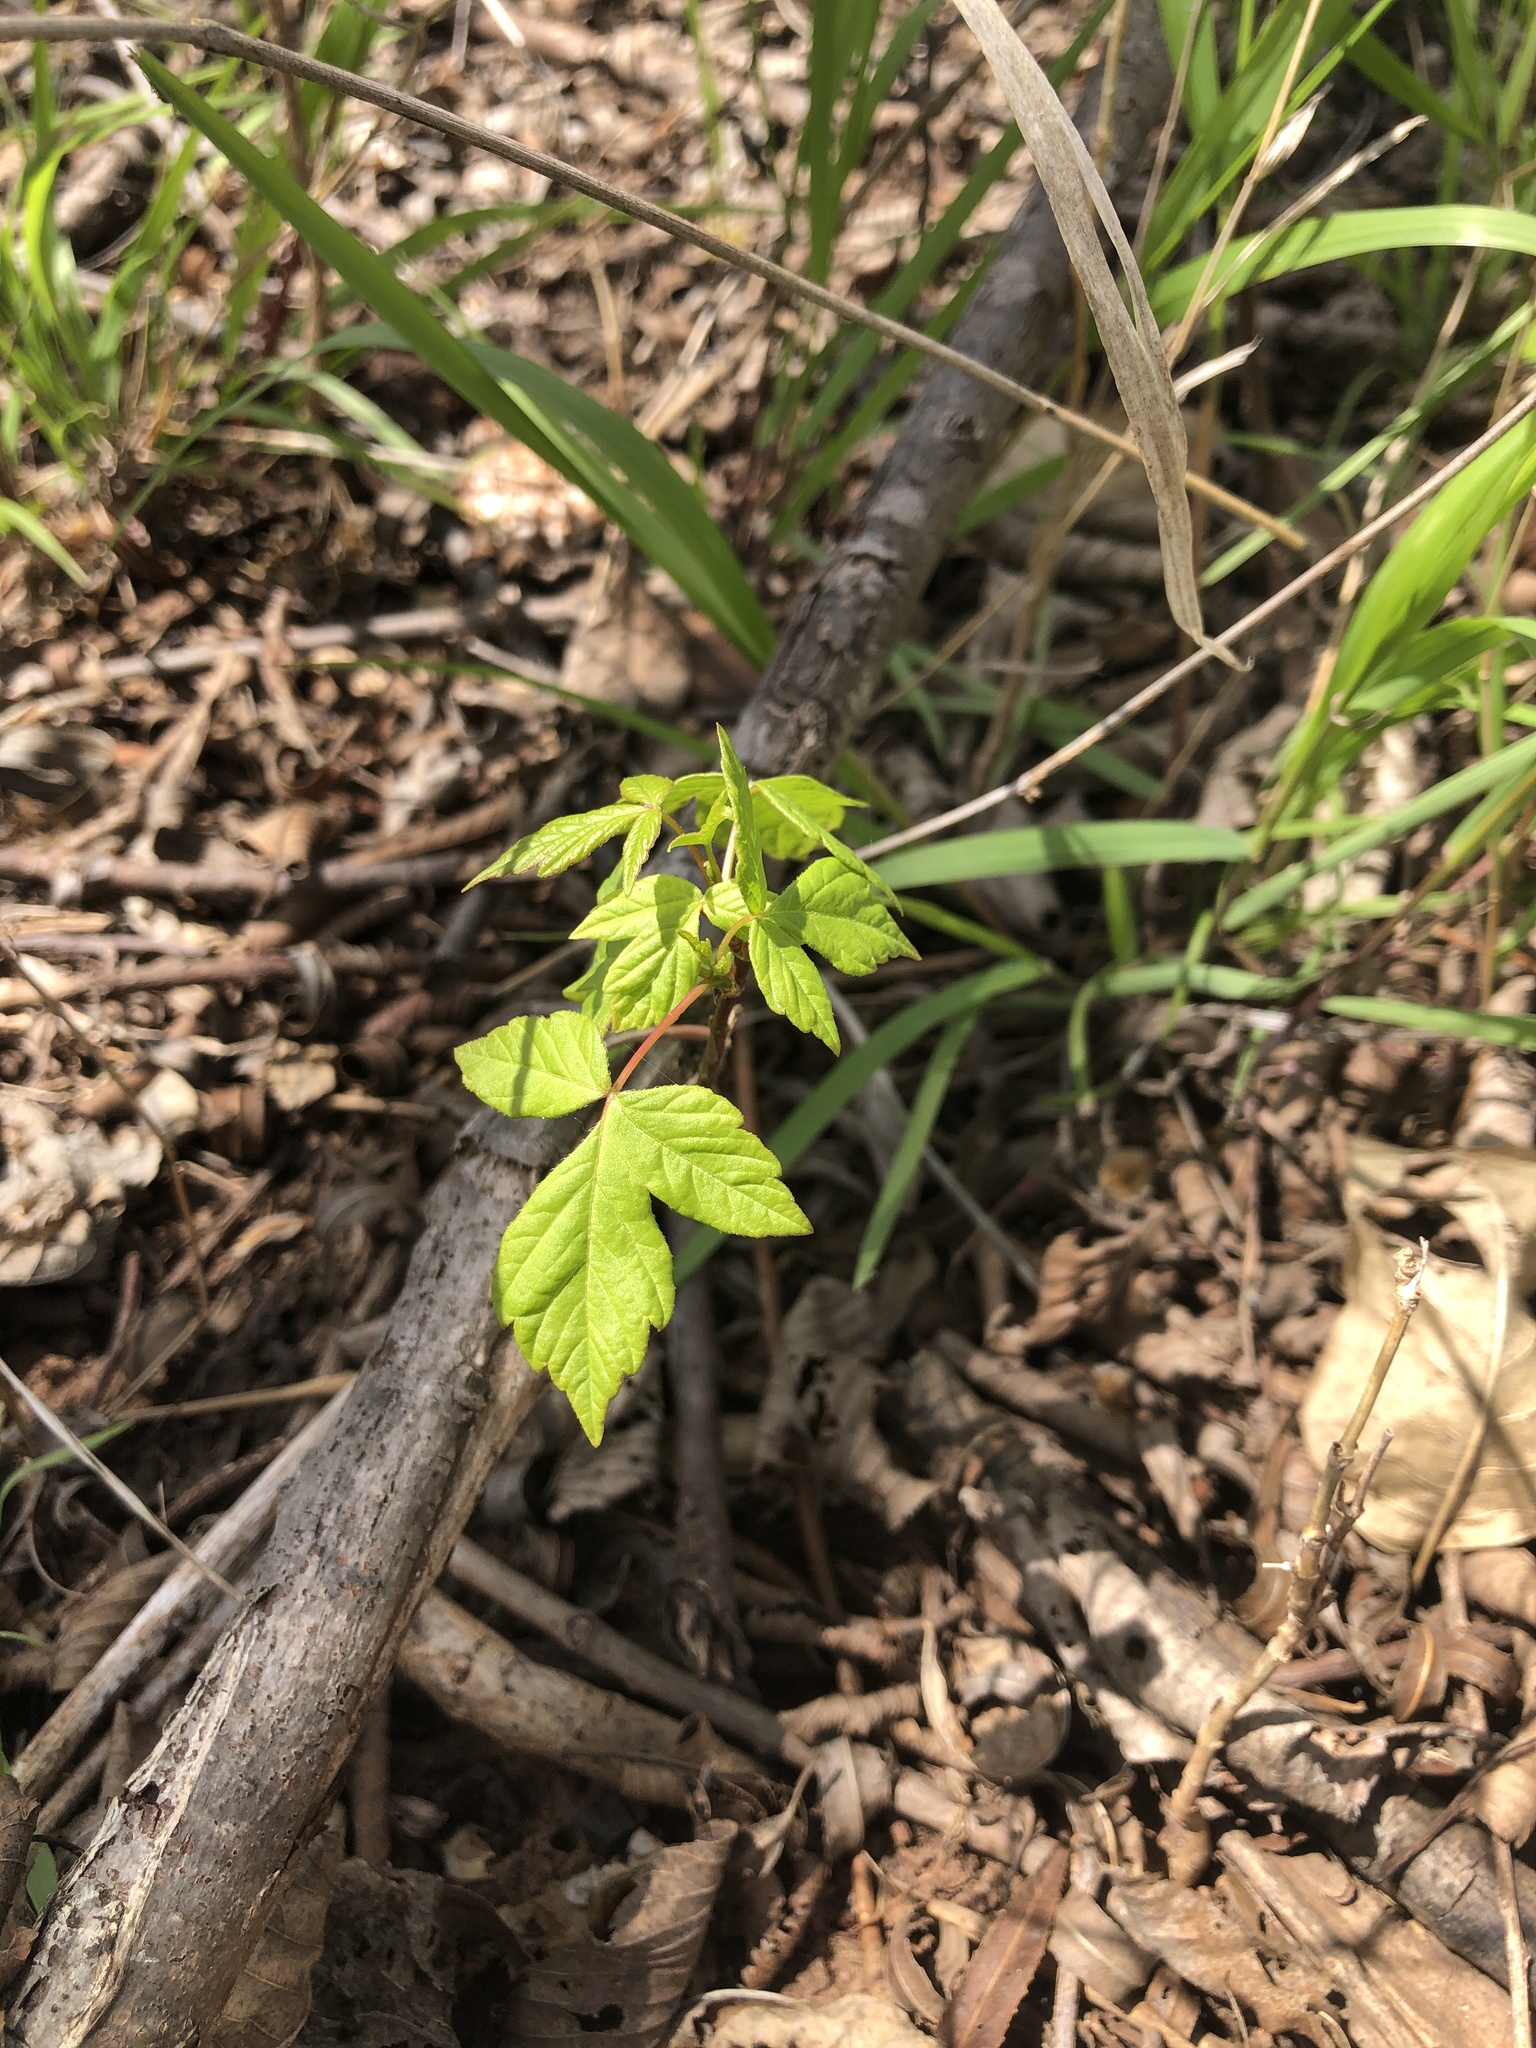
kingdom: Plantae
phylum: Tracheophyta
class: Magnoliopsida
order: Sapindales
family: Anacardiaceae
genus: Toxicodendron
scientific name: Toxicodendron radicans
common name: Poison ivy
